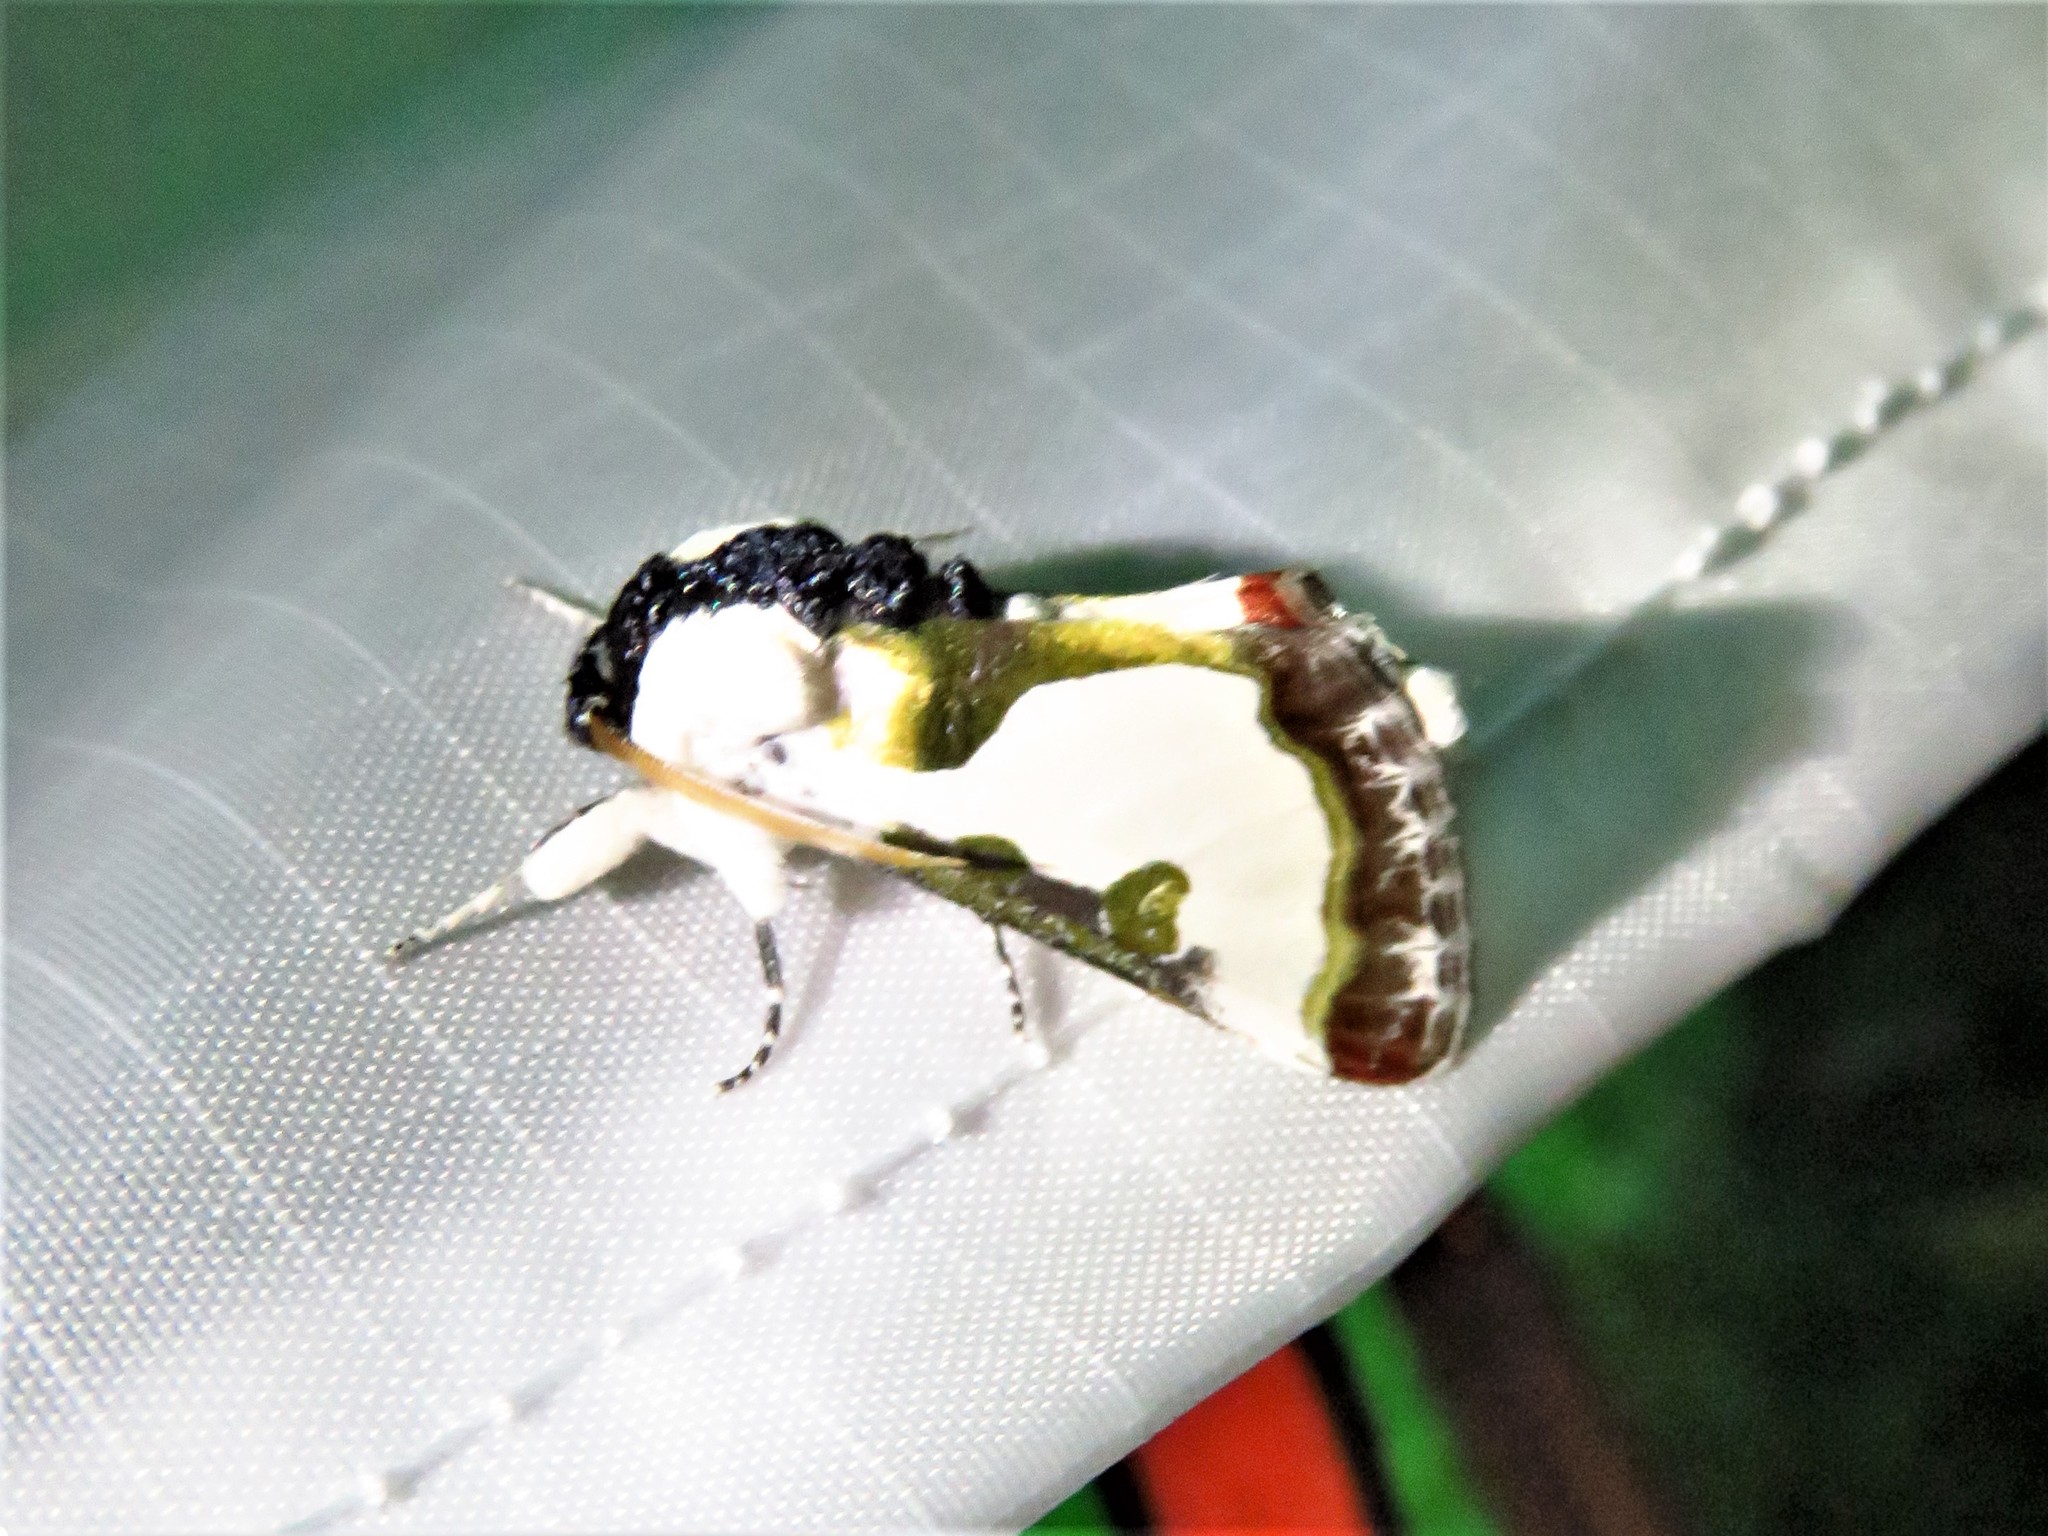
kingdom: Animalia
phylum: Arthropoda
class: Insecta
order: Lepidoptera
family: Noctuidae
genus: Xerociris
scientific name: Xerociris wilsonii
